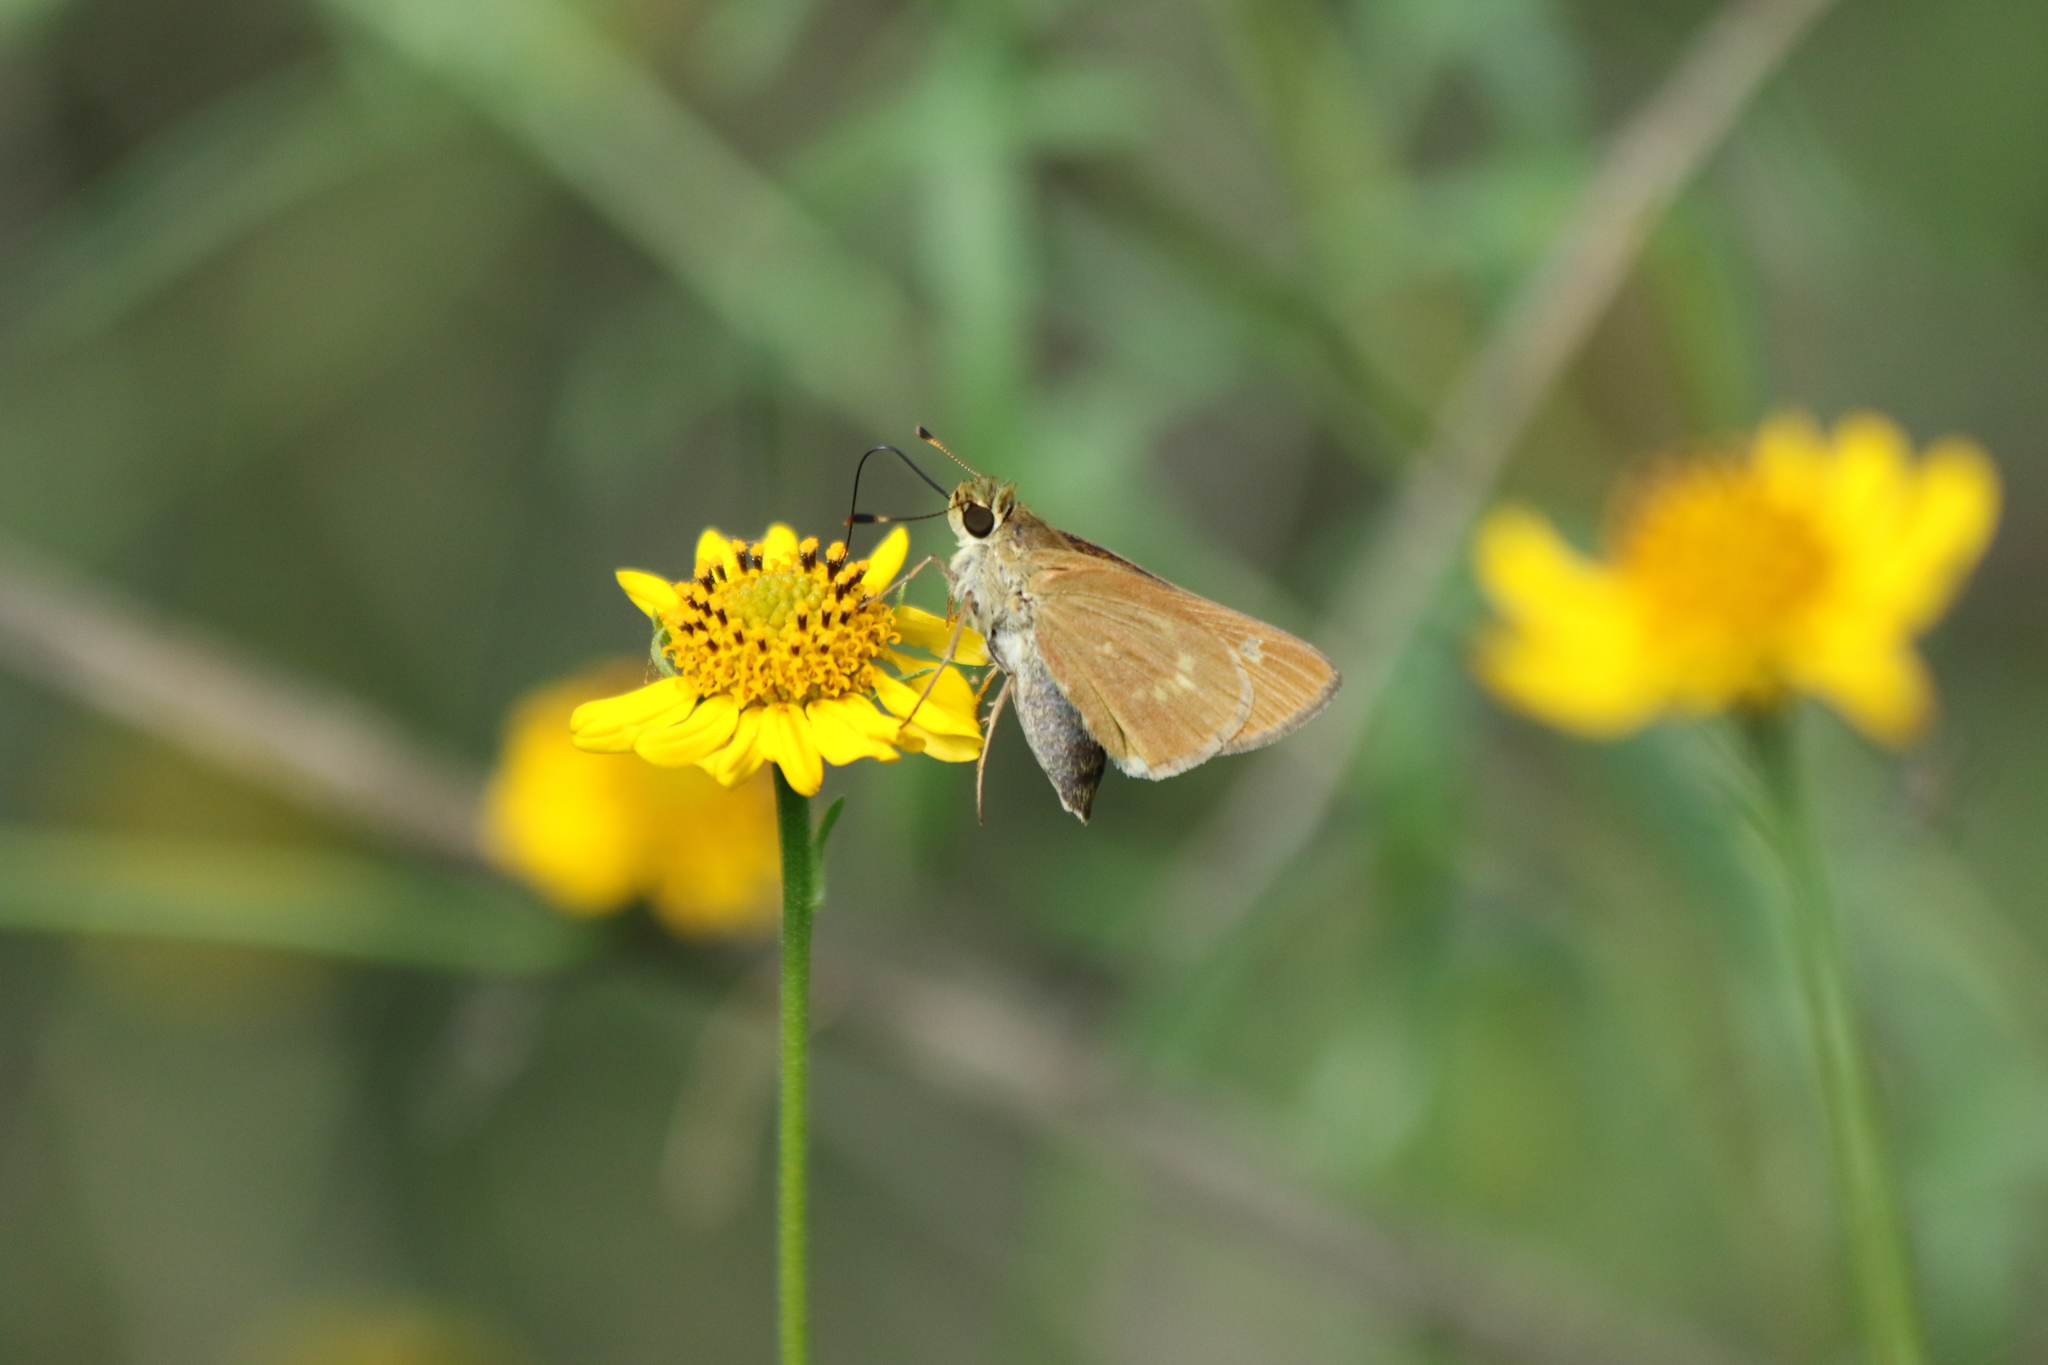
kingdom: Animalia
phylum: Arthropoda
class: Insecta
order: Lepidoptera
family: Hesperiidae
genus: Mellana
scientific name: Mellana eulogius
